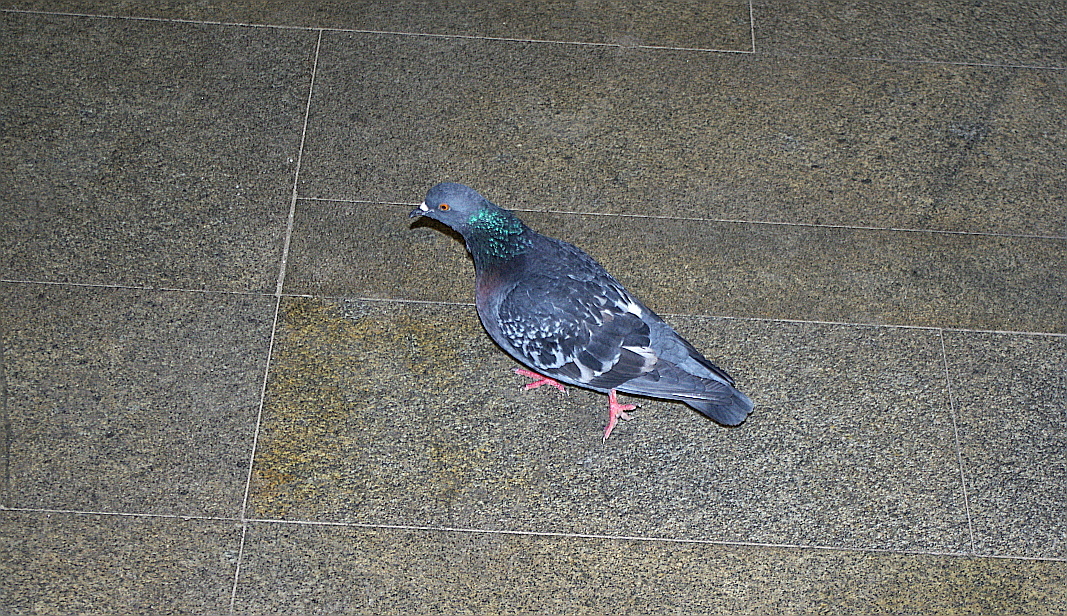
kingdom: Animalia
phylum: Chordata
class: Aves
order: Columbiformes
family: Columbidae
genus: Columba
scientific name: Columba livia
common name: Rock pigeon
